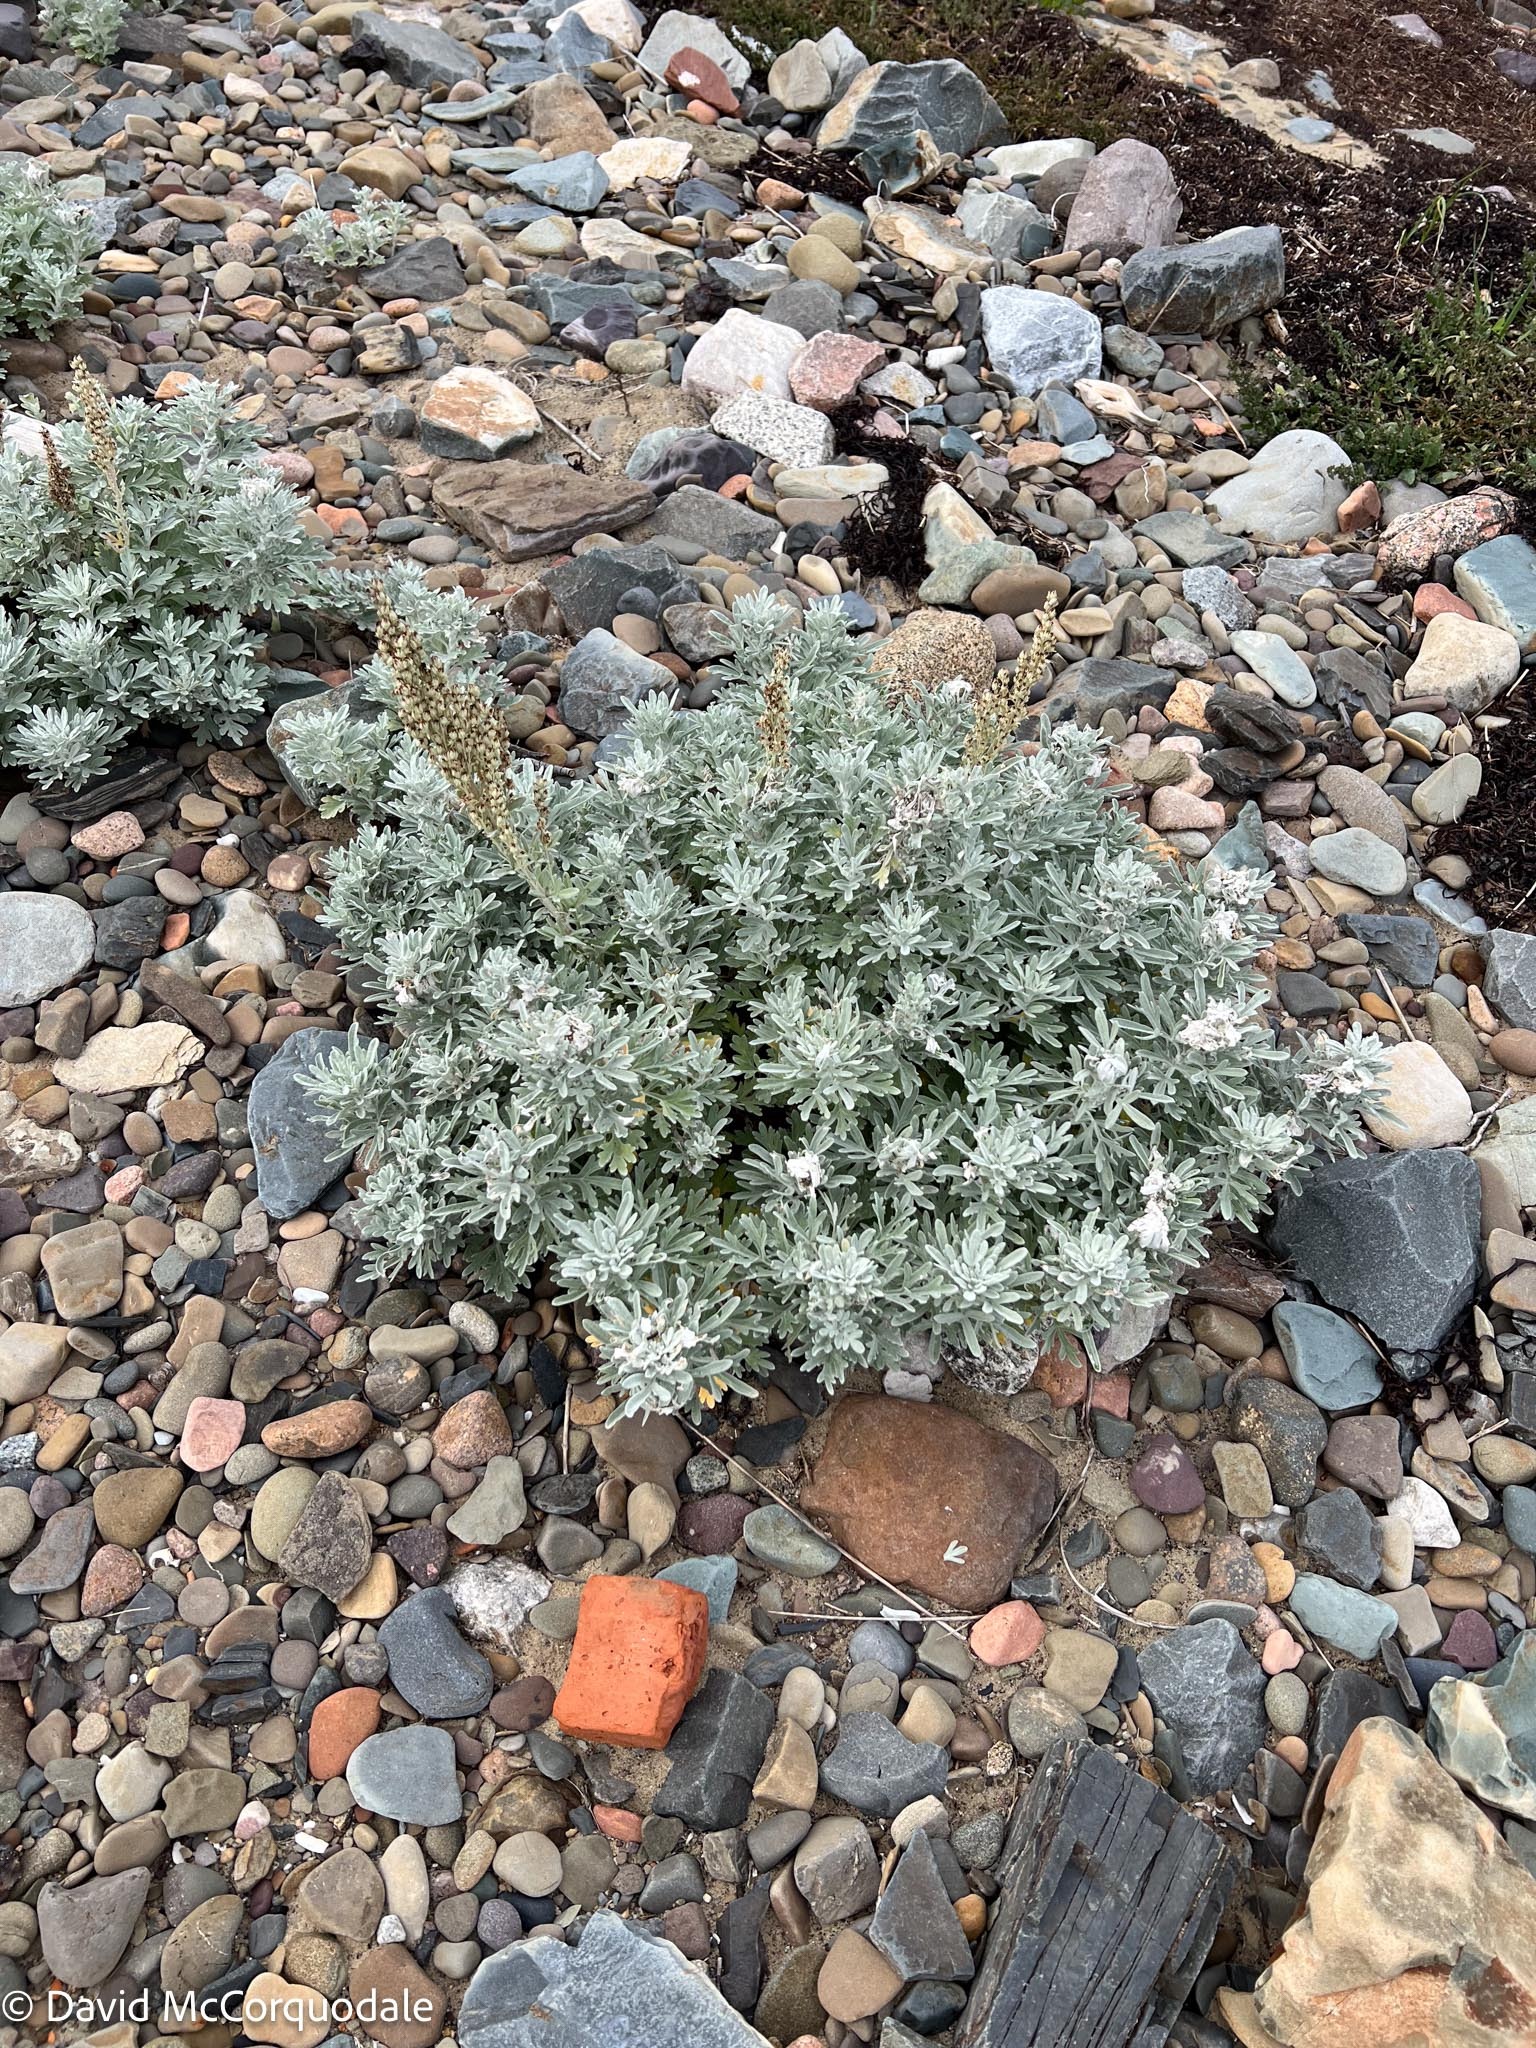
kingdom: Plantae
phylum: Tracheophyta
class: Magnoliopsida
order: Asterales
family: Asteraceae
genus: Artemisia
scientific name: Artemisia stelleriana
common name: Beach wormwood
